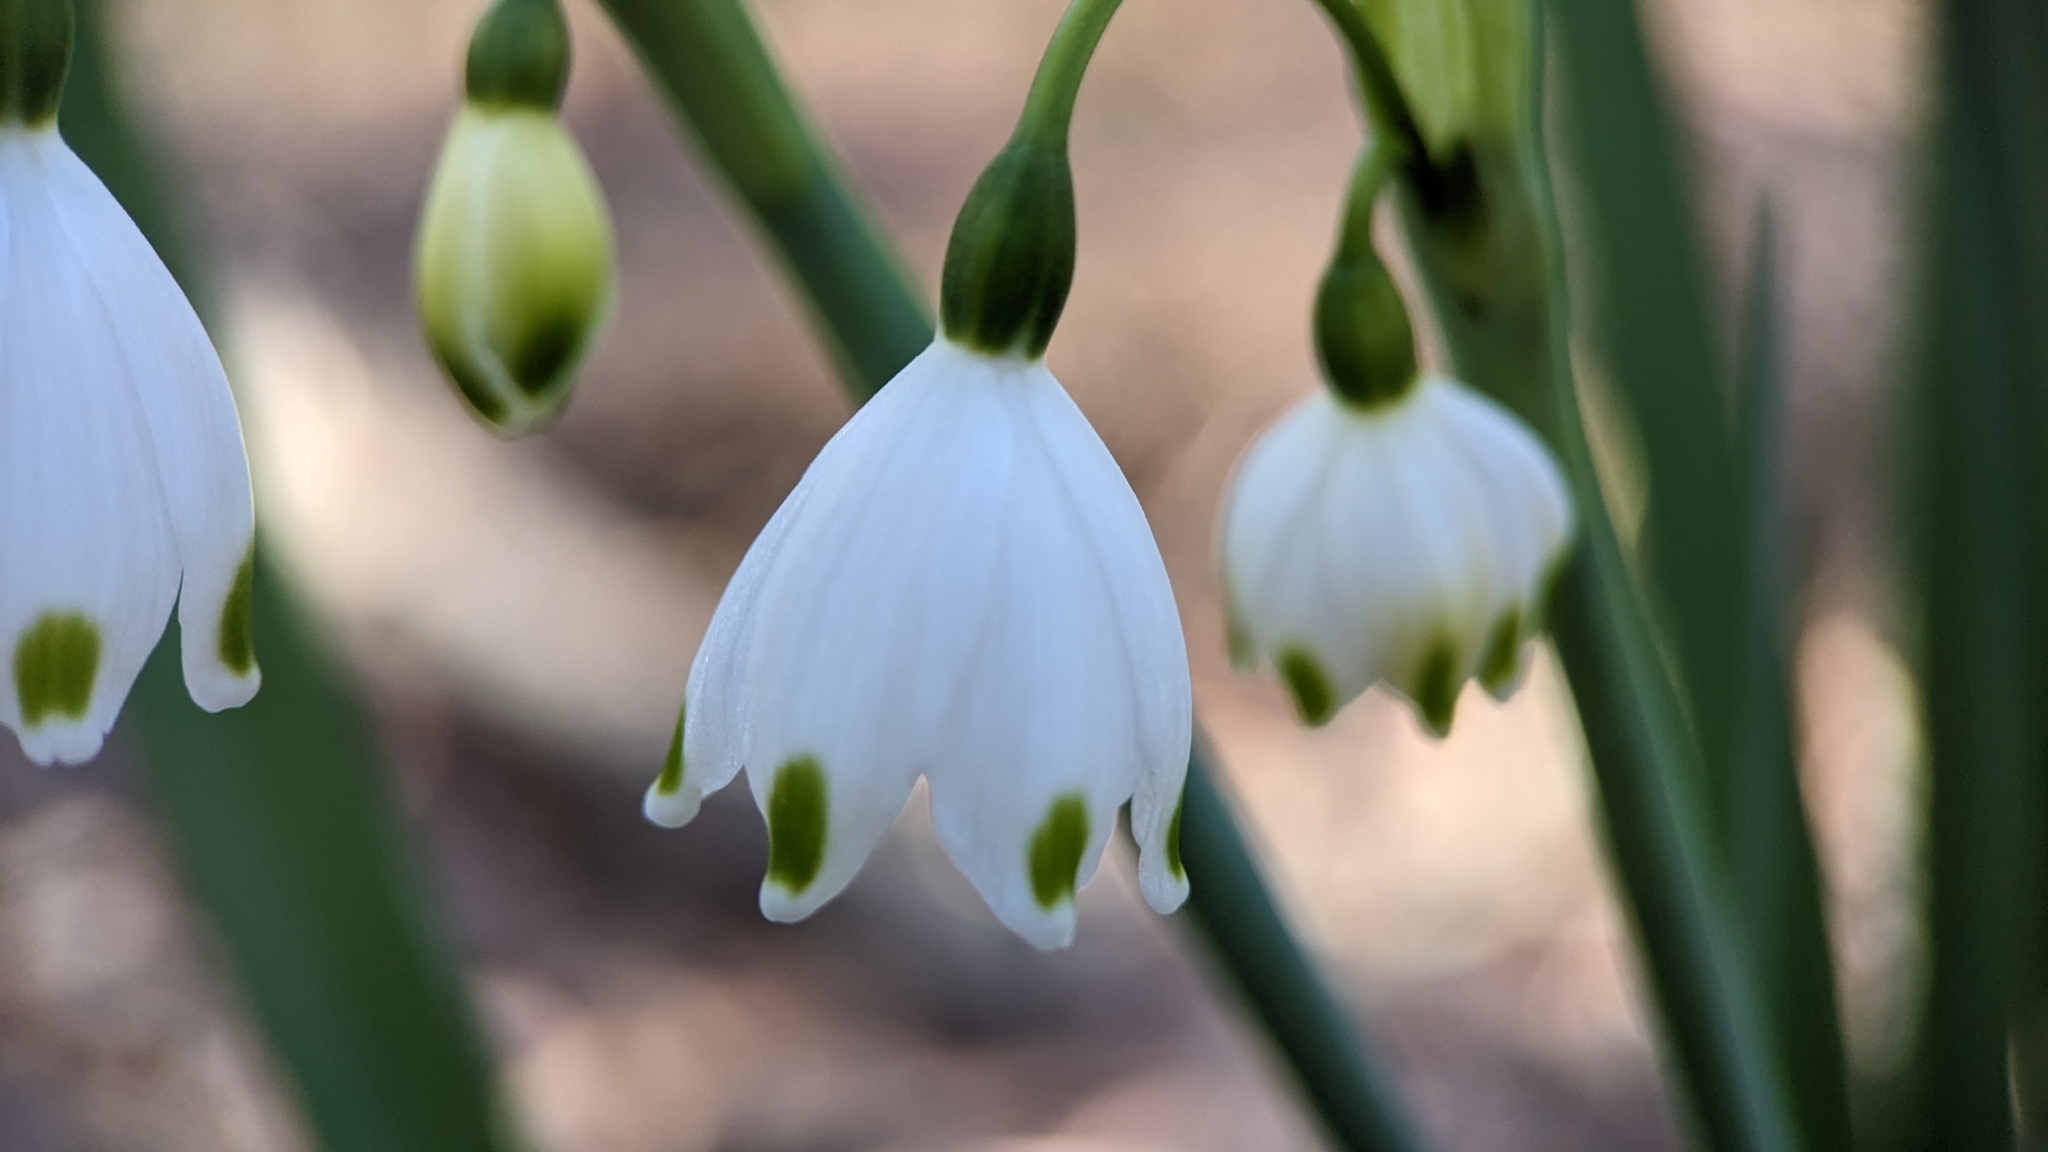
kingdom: Plantae
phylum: Tracheophyta
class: Liliopsida
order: Asparagales
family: Amaryllidaceae
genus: Leucojum
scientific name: Leucojum aestivum
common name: Summer snowflake
